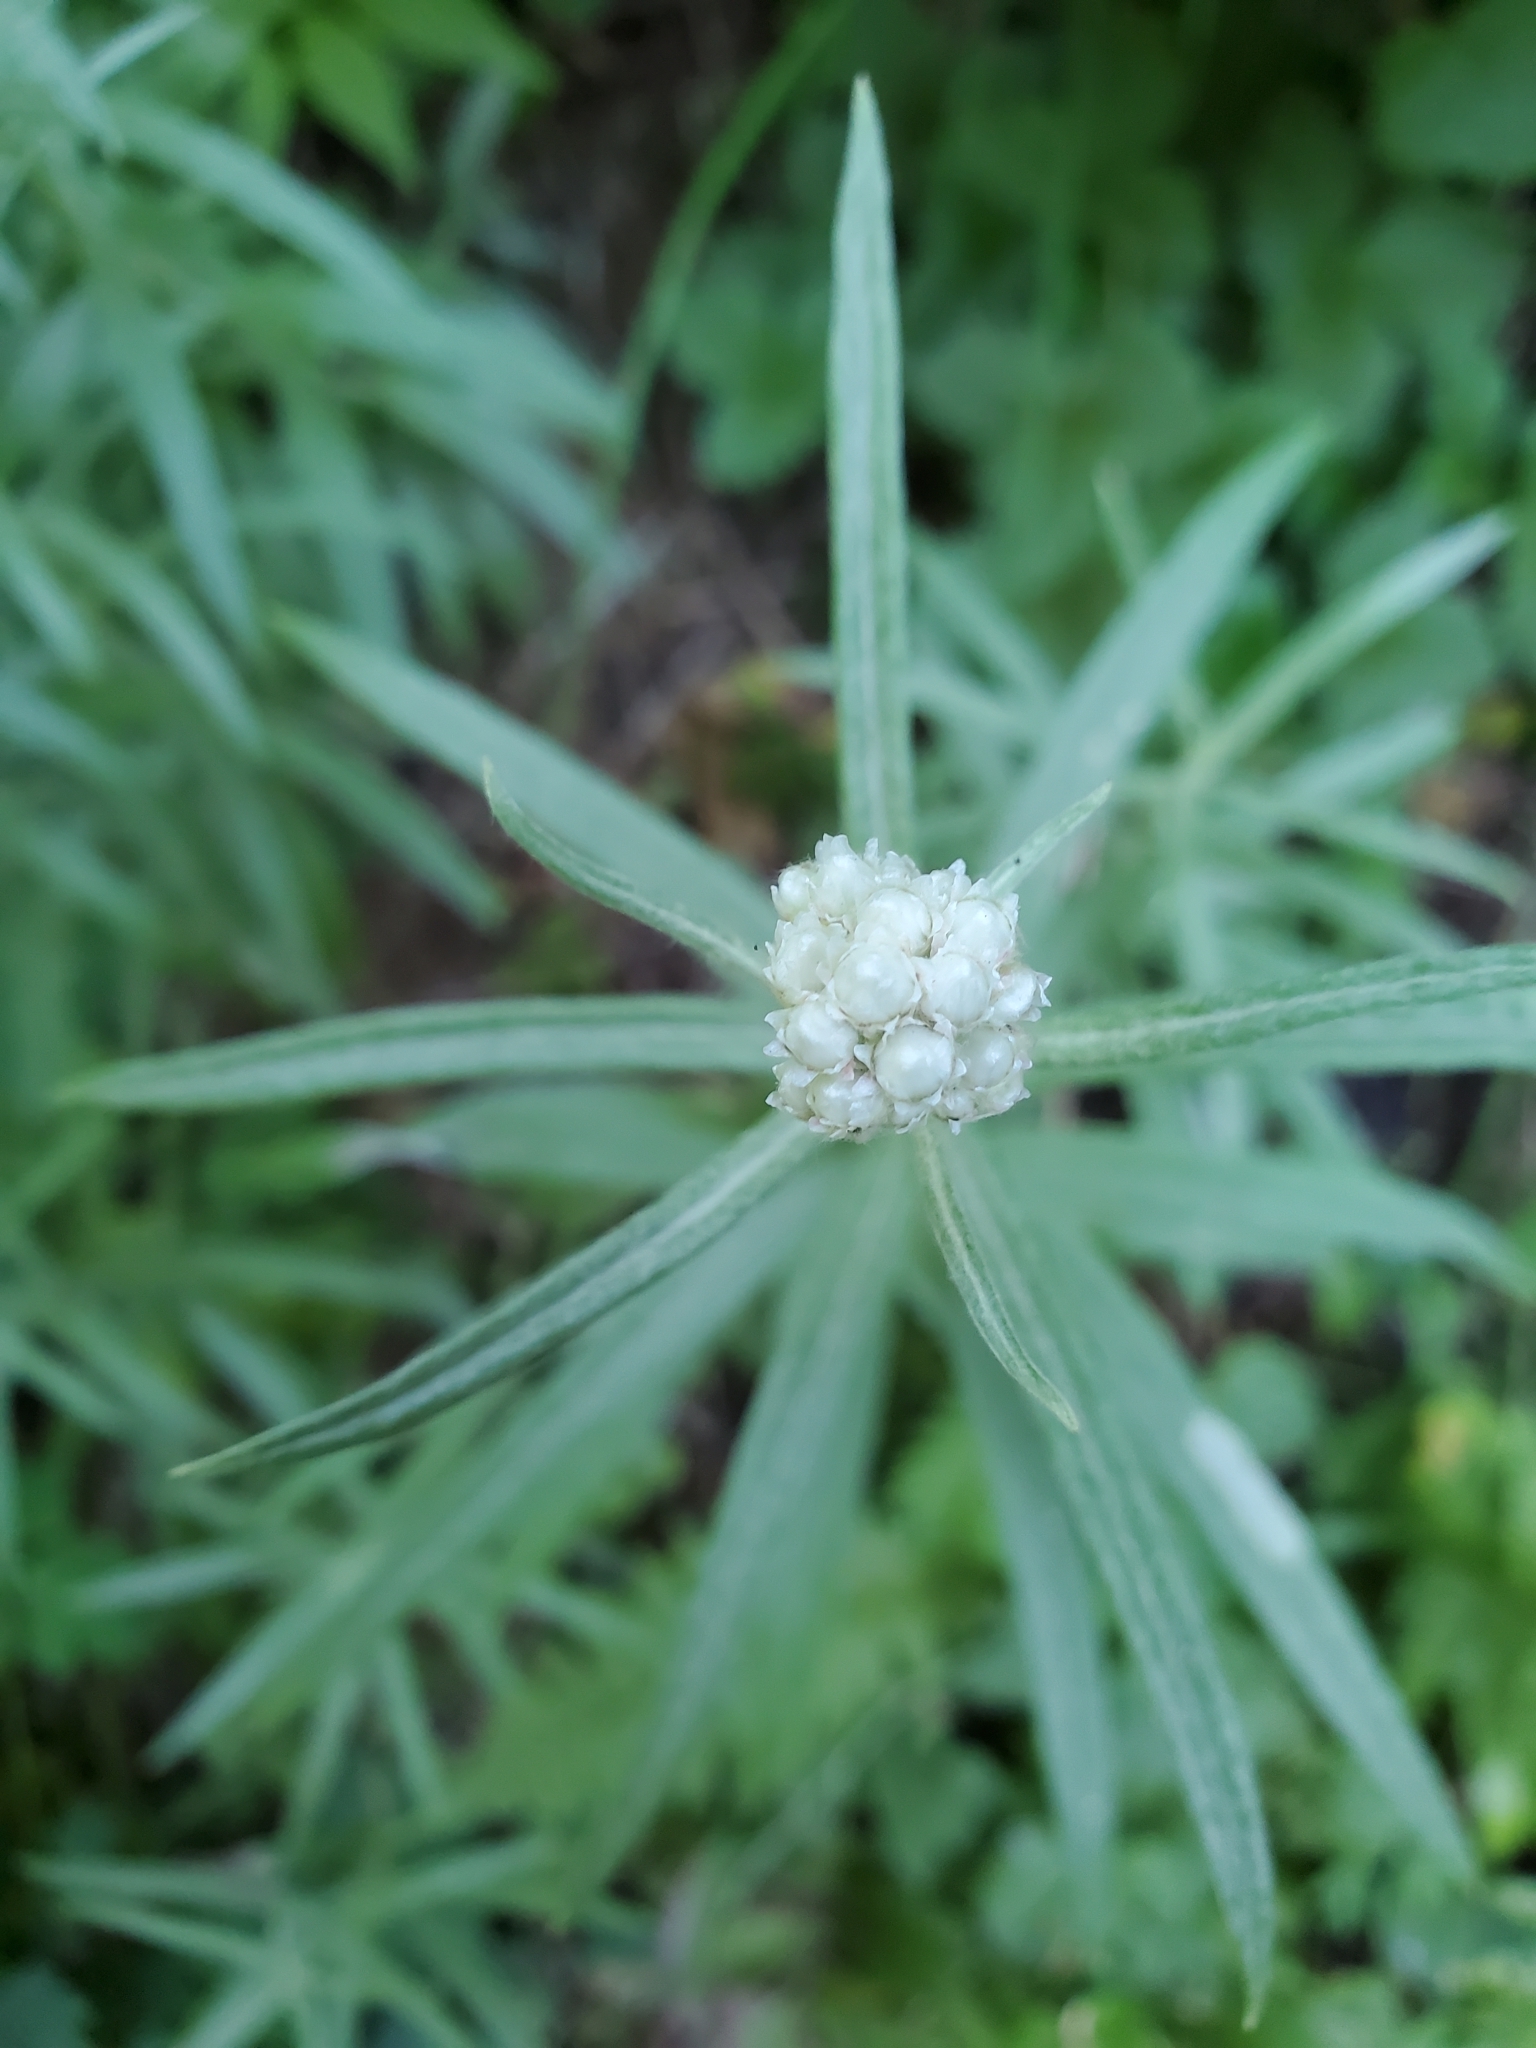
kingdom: Plantae
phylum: Tracheophyta
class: Magnoliopsida
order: Asterales
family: Asteraceae
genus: Anaphalis
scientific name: Anaphalis margaritacea
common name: Pearly everlasting
